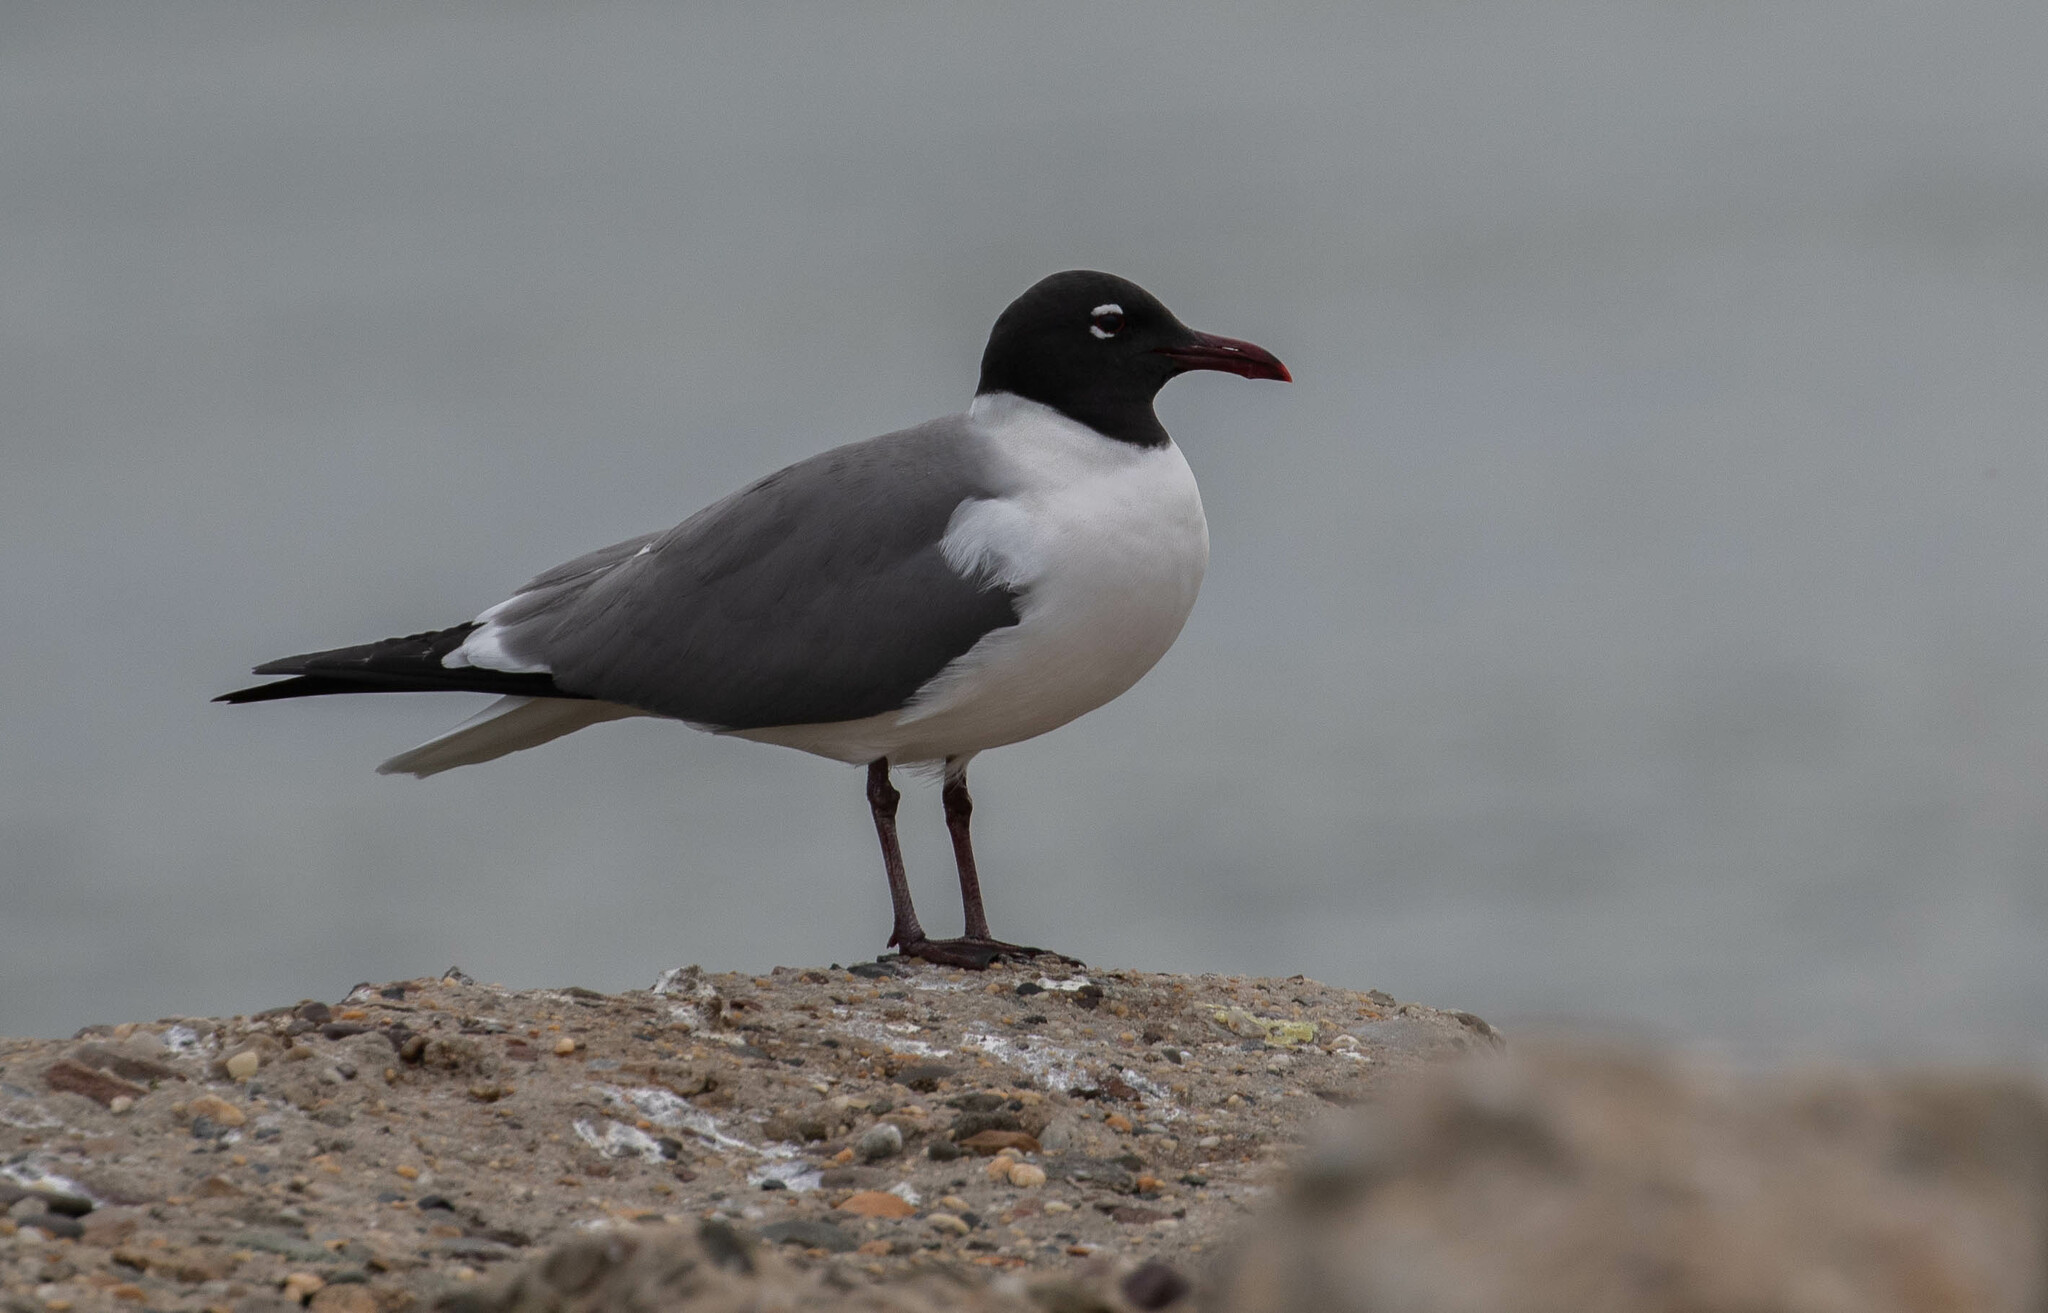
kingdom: Animalia
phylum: Chordata
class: Aves
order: Charadriiformes
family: Laridae
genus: Leucophaeus
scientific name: Leucophaeus atricilla
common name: Laughing gull
